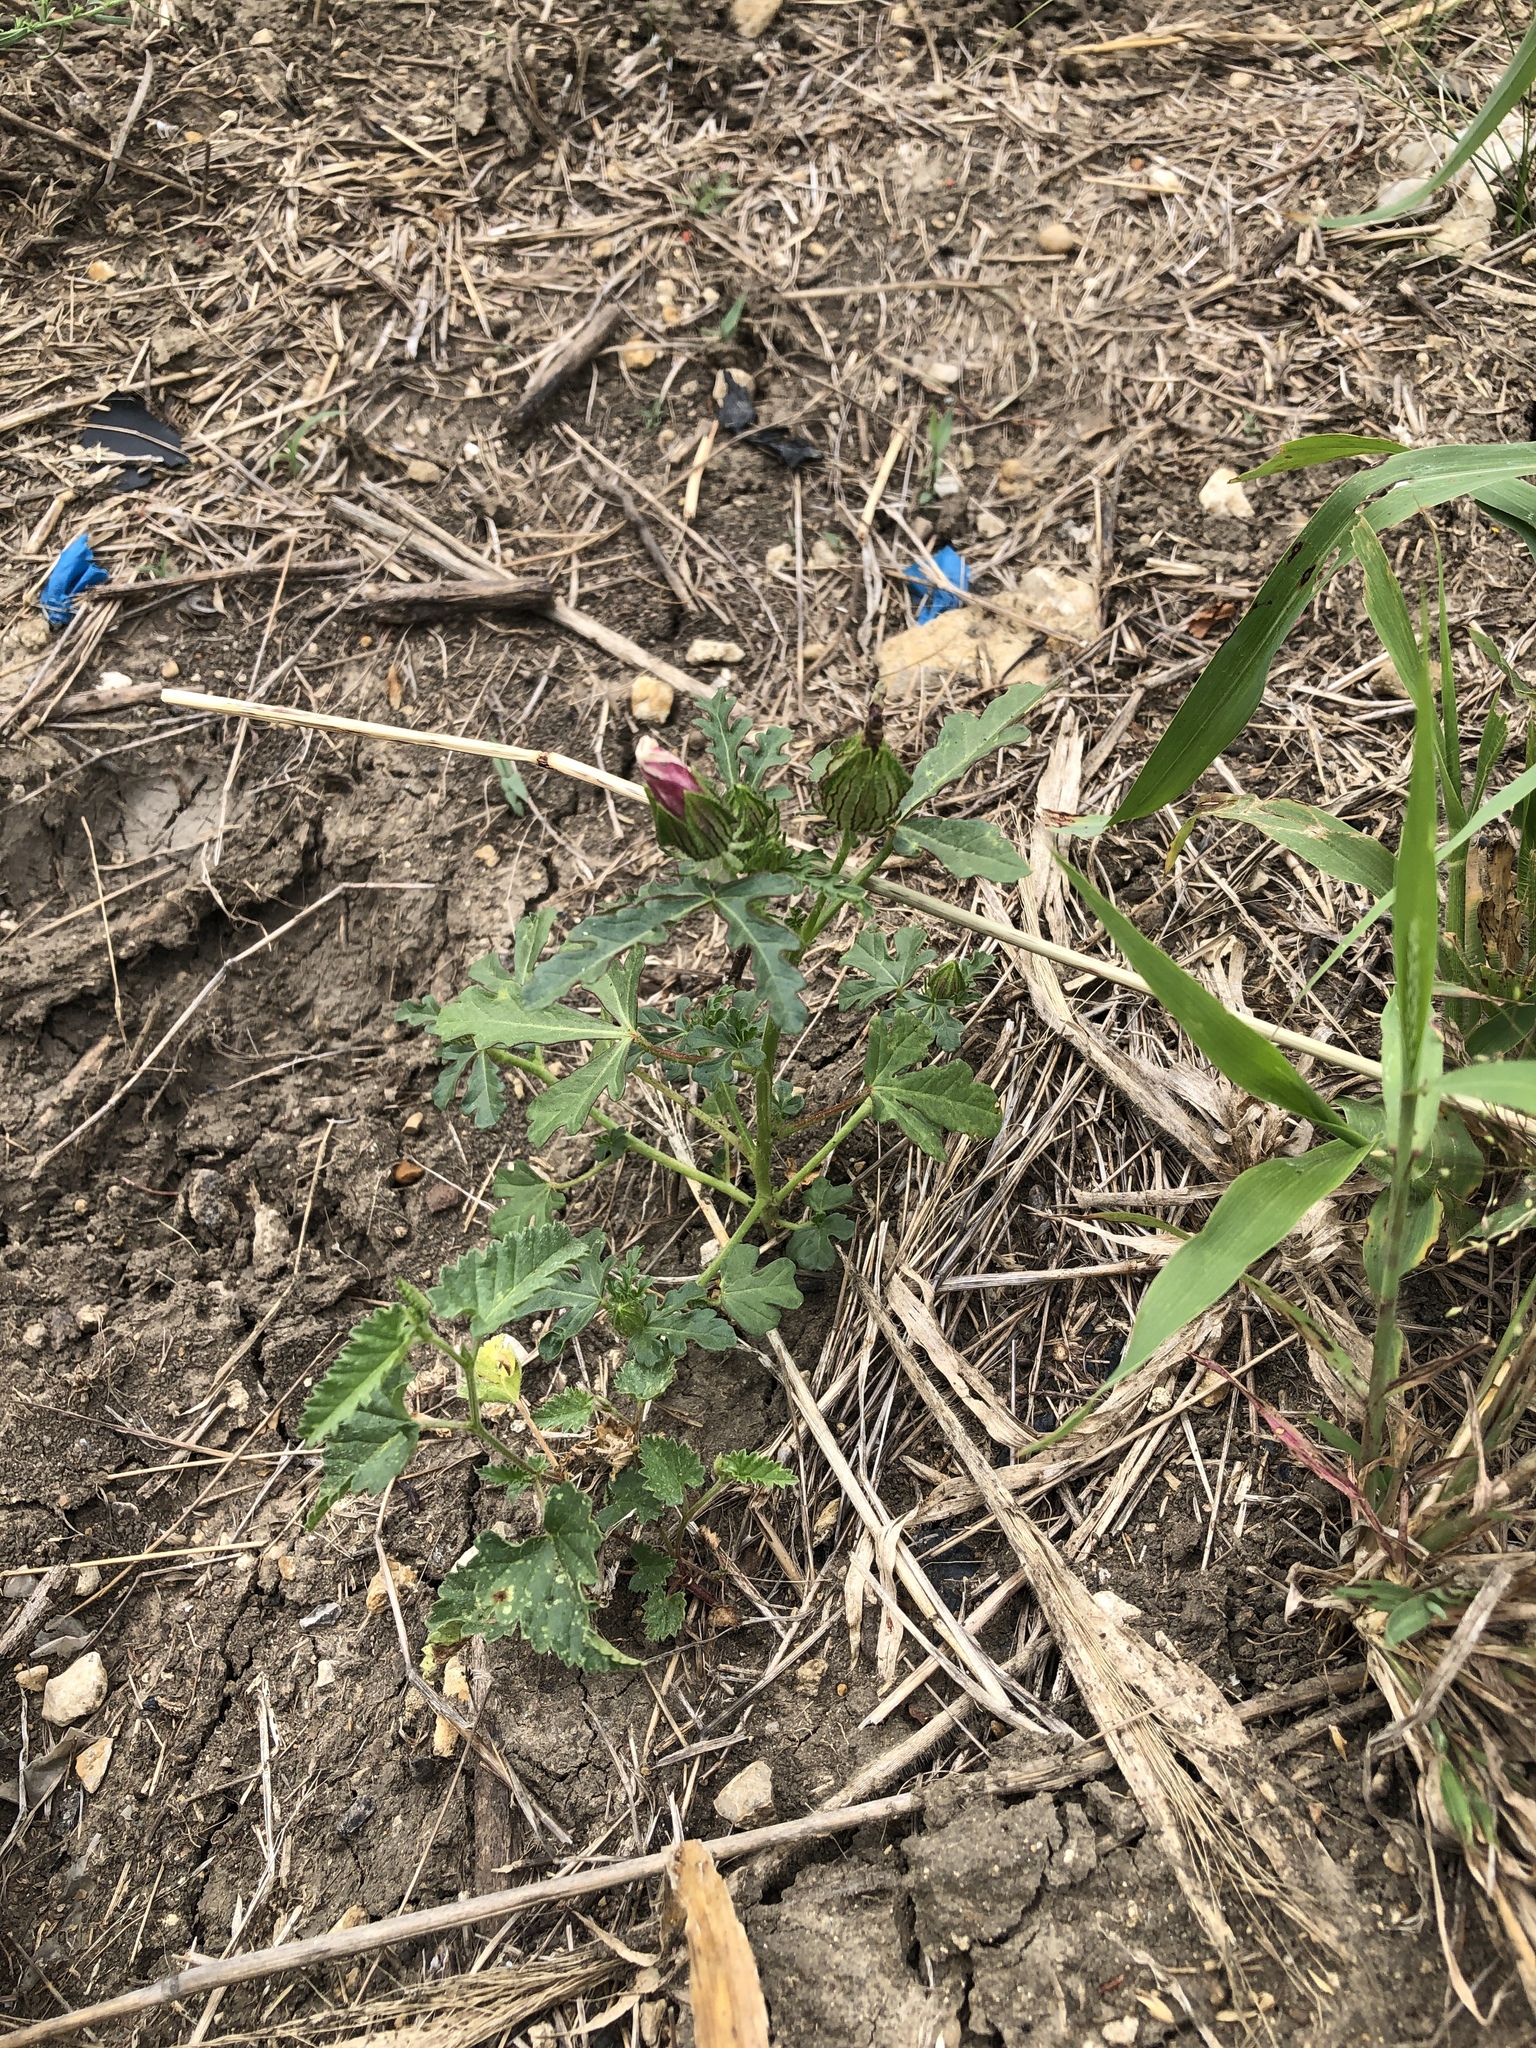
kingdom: Plantae
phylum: Tracheophyta
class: Magnoliopsida
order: Malvales
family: Malvaceae
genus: Hibiscus
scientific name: Hibiscus trionum
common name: Bladder ketmia
